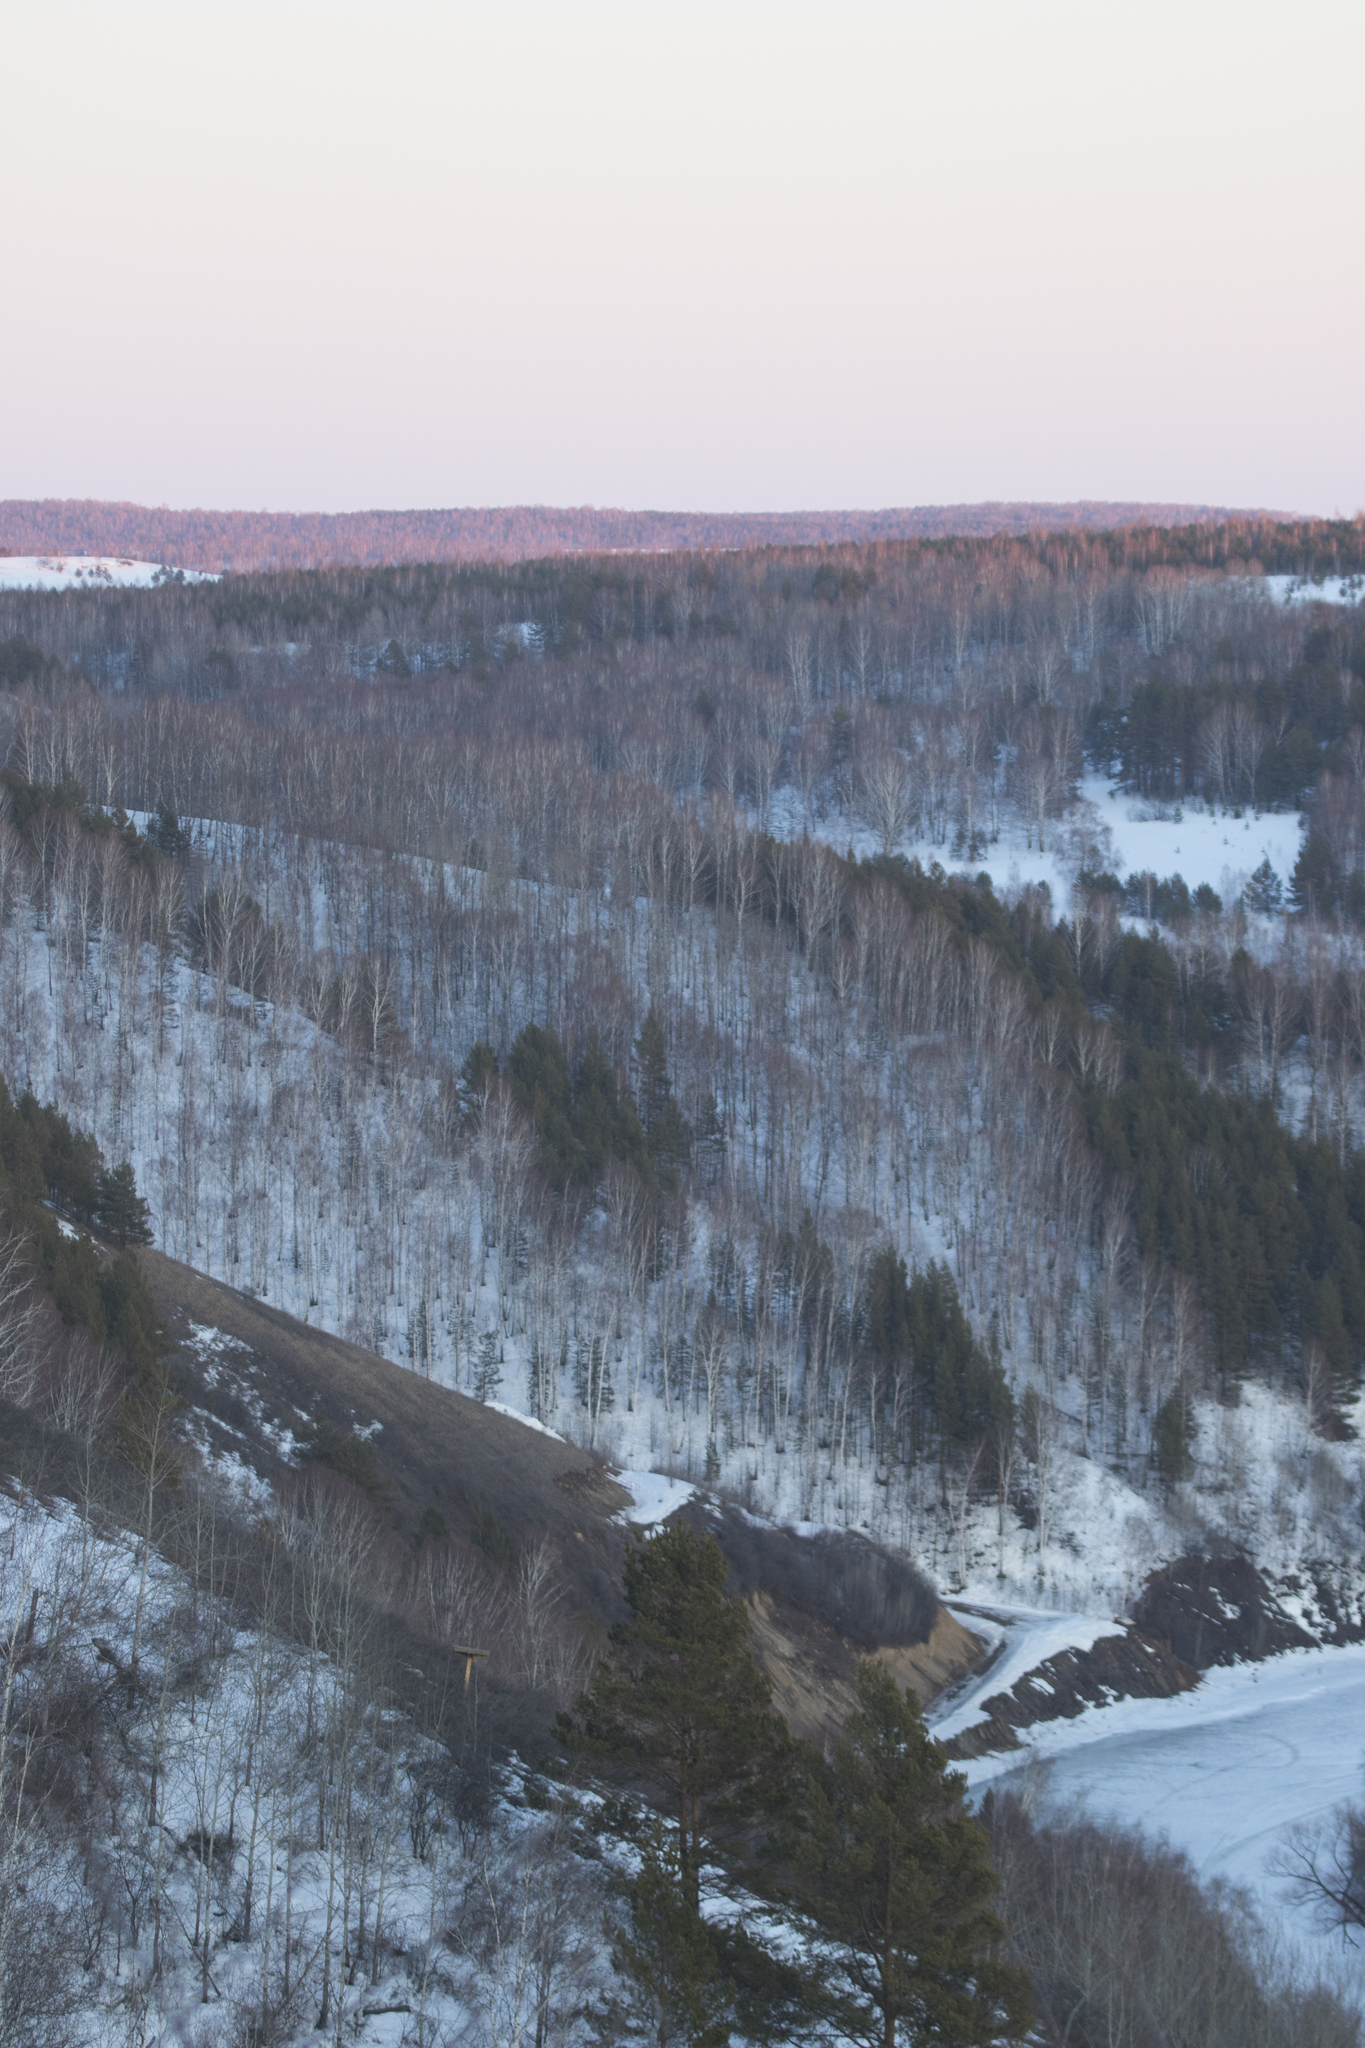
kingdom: Plantae
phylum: Tracheophyta
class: Pinopsida
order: Pinales
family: Pinaceae
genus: Pinus
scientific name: Pinus sylvestris
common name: Scots pine
